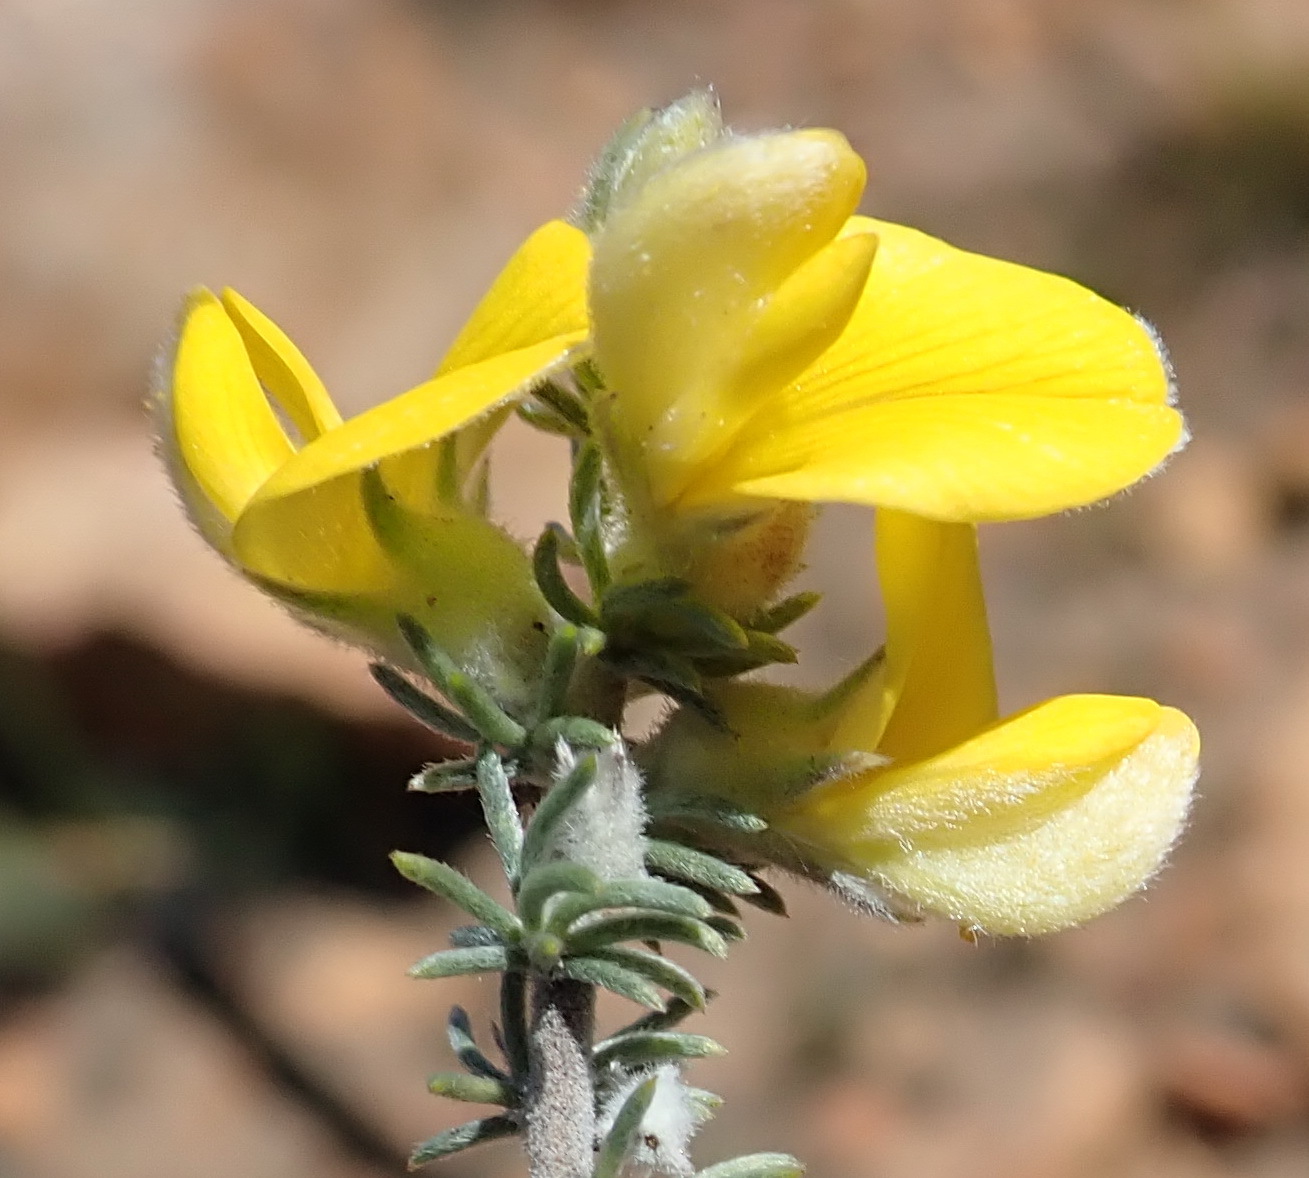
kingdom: Plantae
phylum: Tracheophyta
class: Magnoliopsida
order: Fabales
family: Fabaceae
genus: Aspalathus
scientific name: Aspalathus kougaensis
